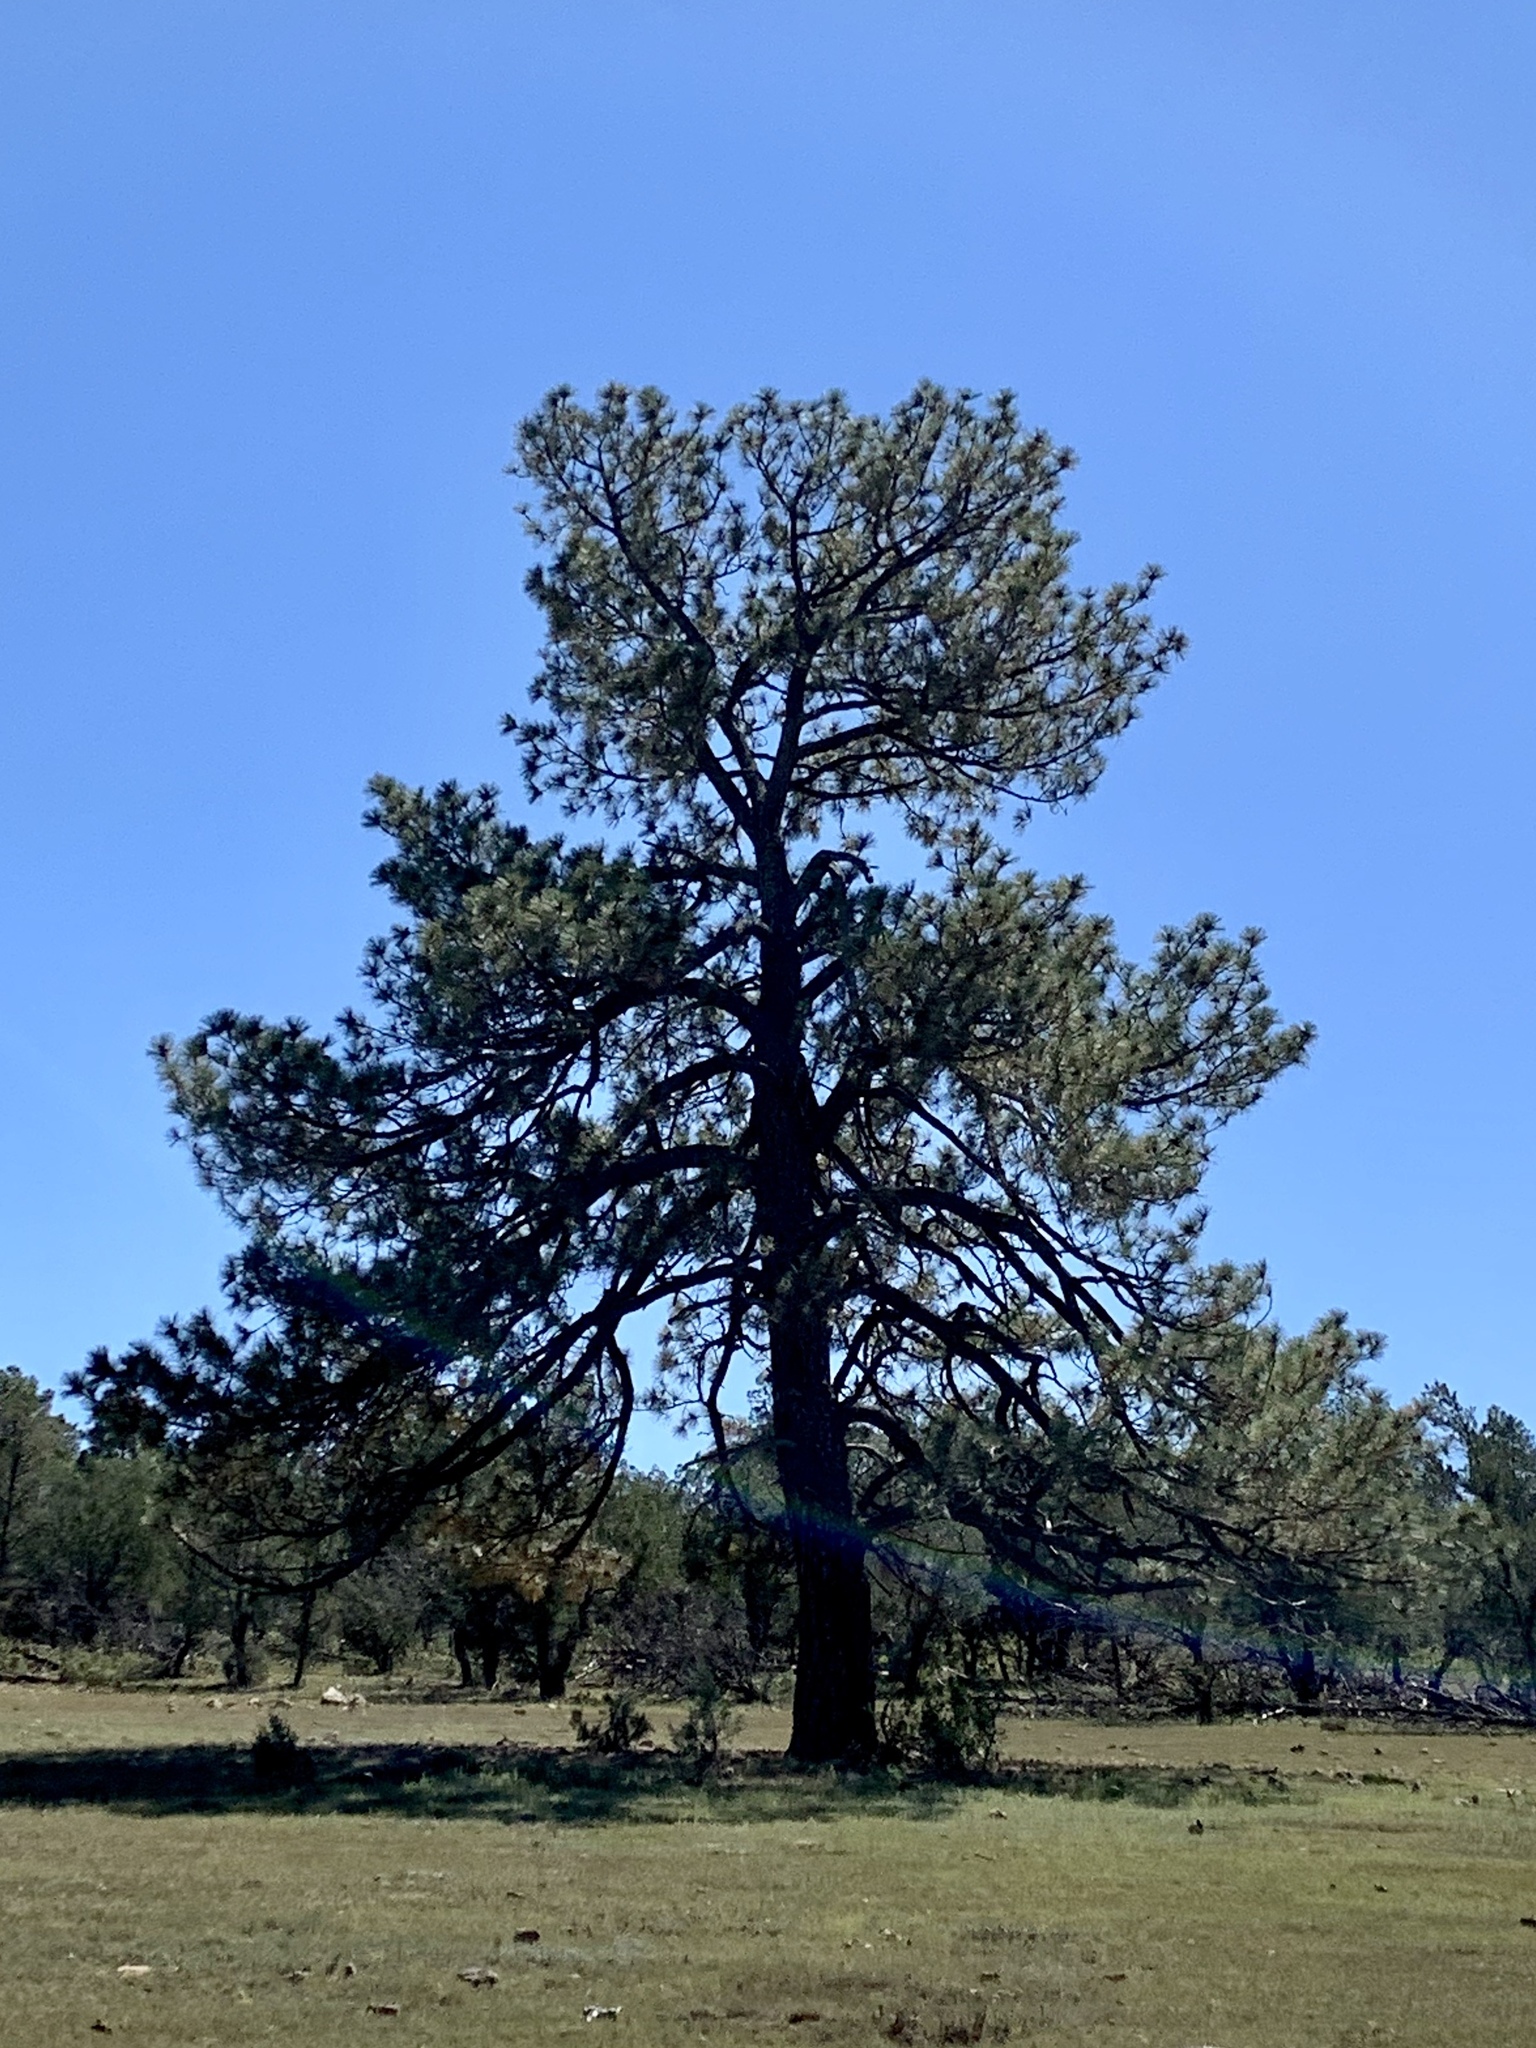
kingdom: Plantae
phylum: Tracheophyta
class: Pinopsida
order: Pinales
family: Pinaceae
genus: Pinus
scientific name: Pinus ponderosa
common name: Western yellow-pine
